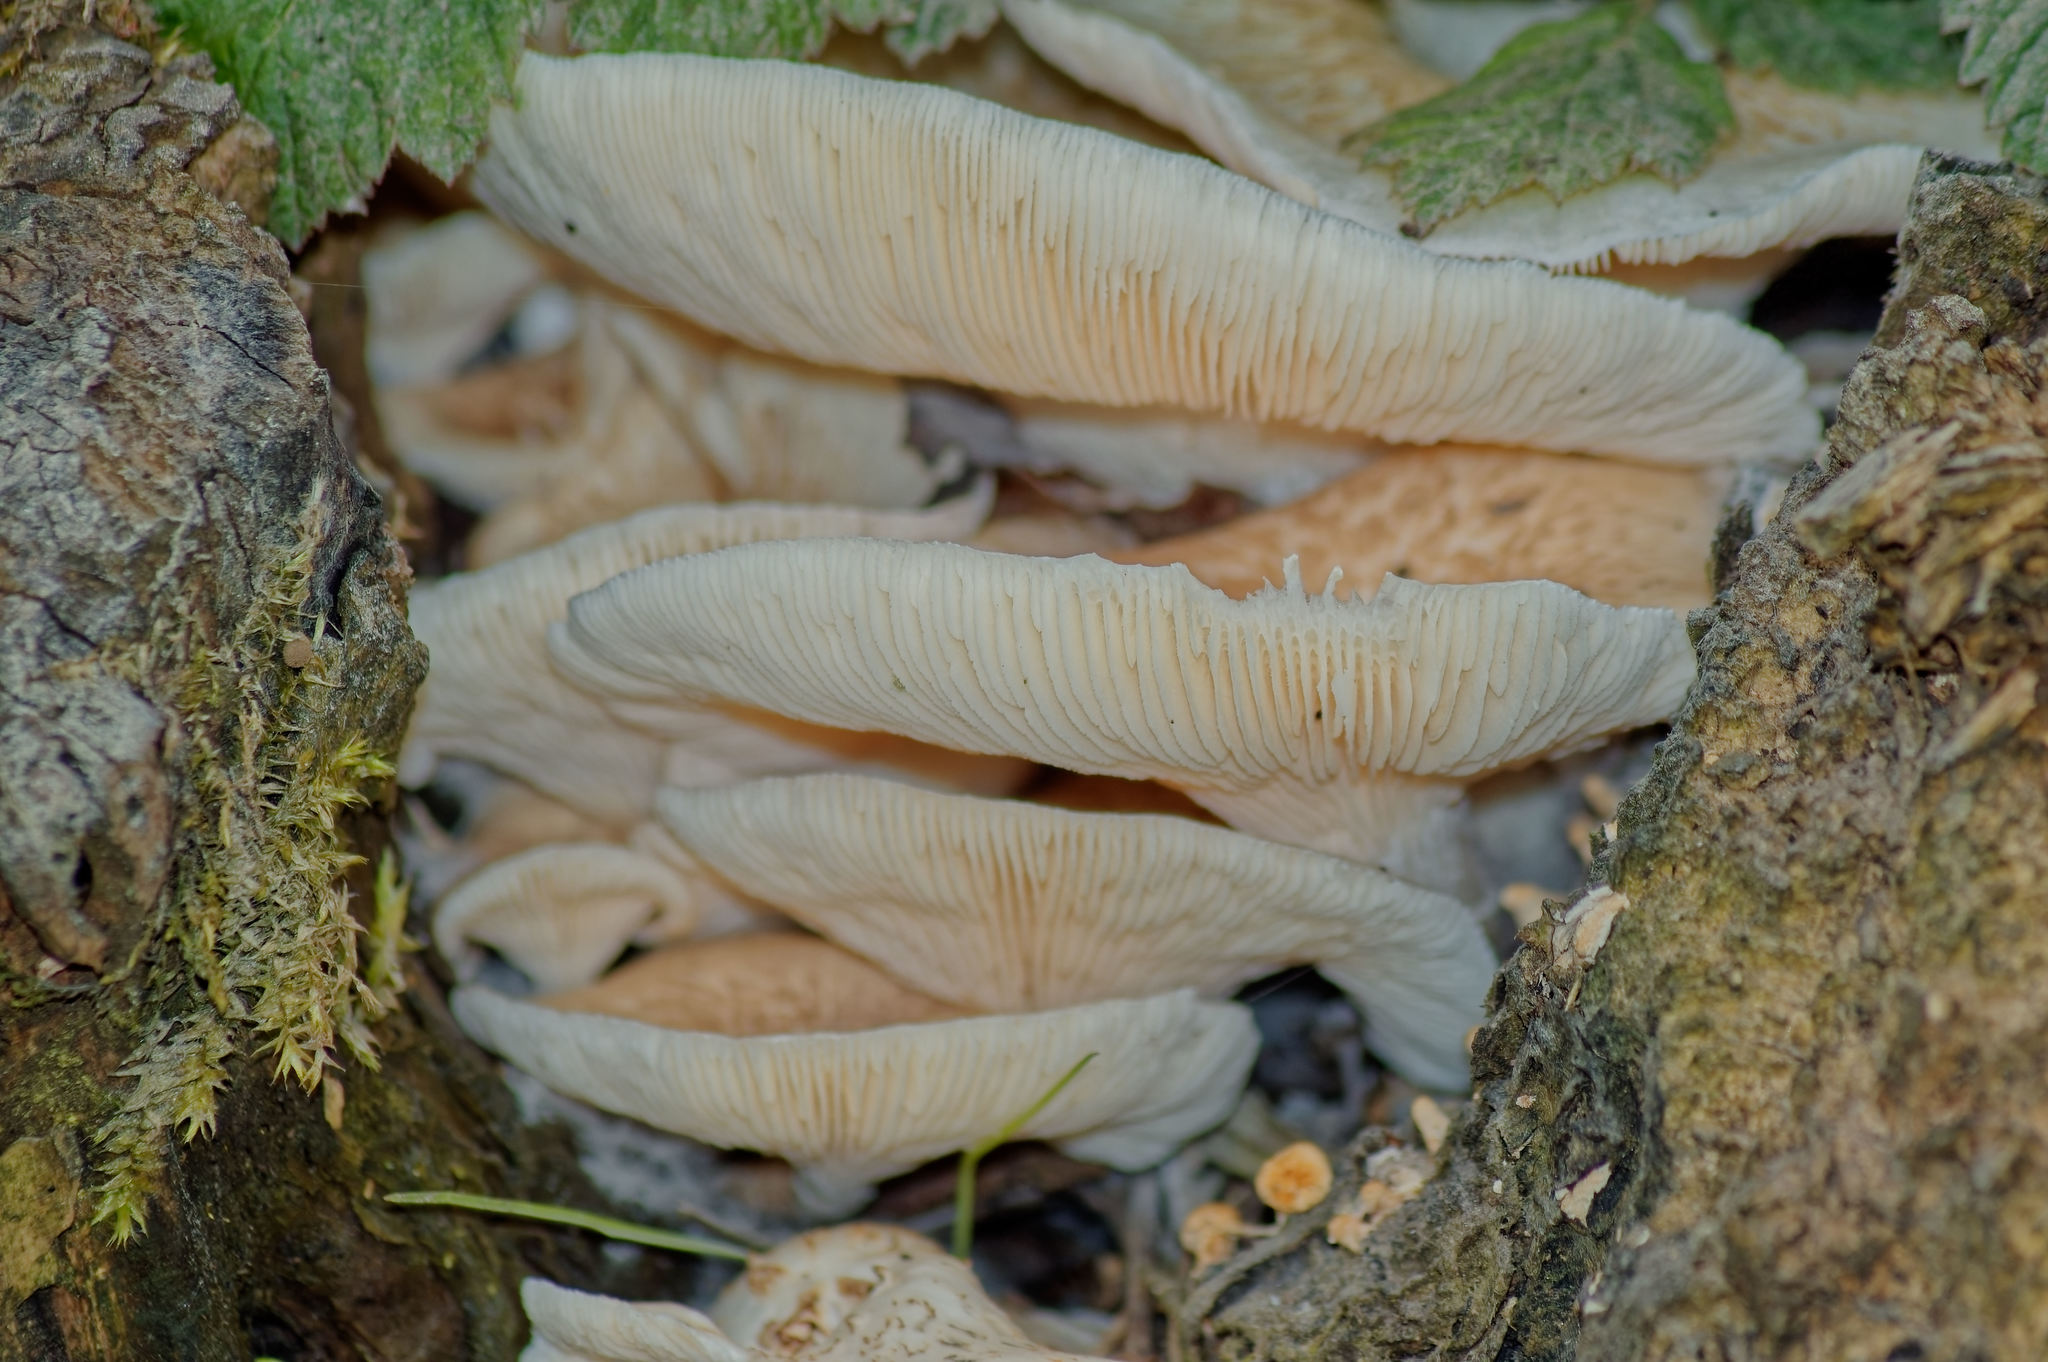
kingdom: Fungi
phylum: Basidiomycota
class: Agaricomycetes
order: Gloeophyllales
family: Gloeophyllaceae
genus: Neolentinus
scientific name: Neolentinus lepideus
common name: Scaly sawgill
